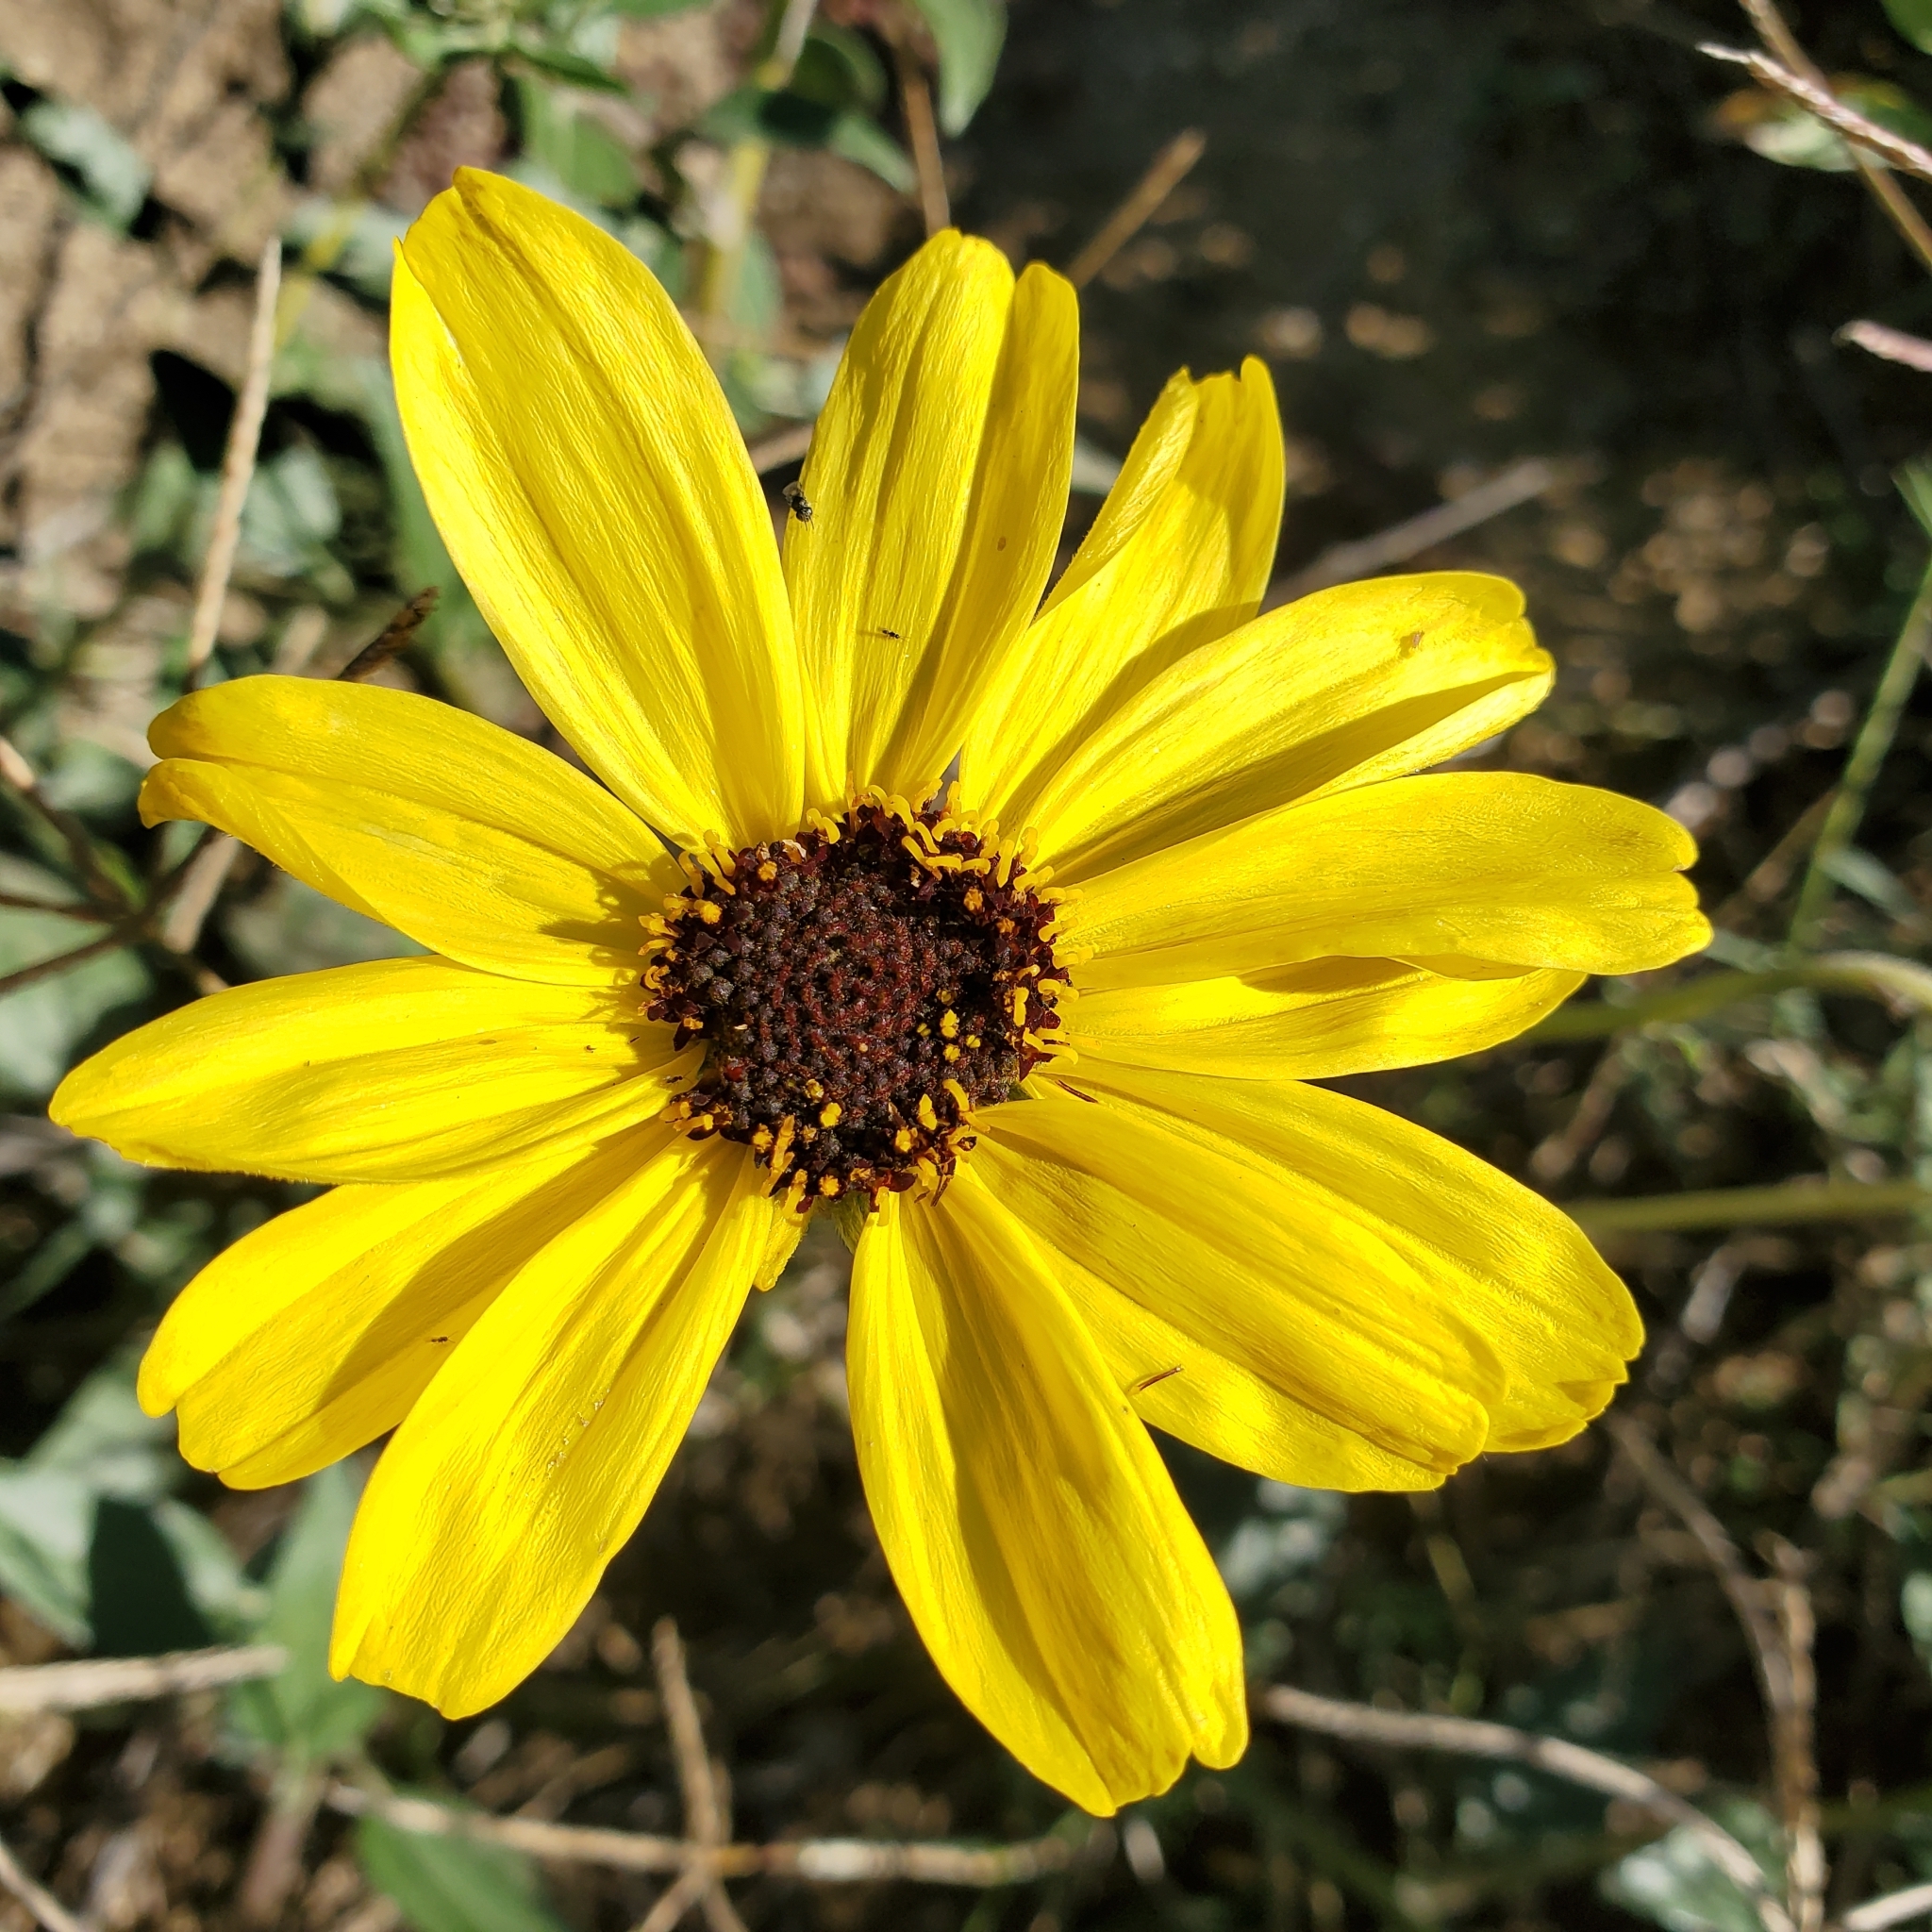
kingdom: Plantae
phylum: Tracheophyta
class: Magnoliopsida
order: Asterales
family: Asteraceae
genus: Encelia
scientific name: Encelia californica
